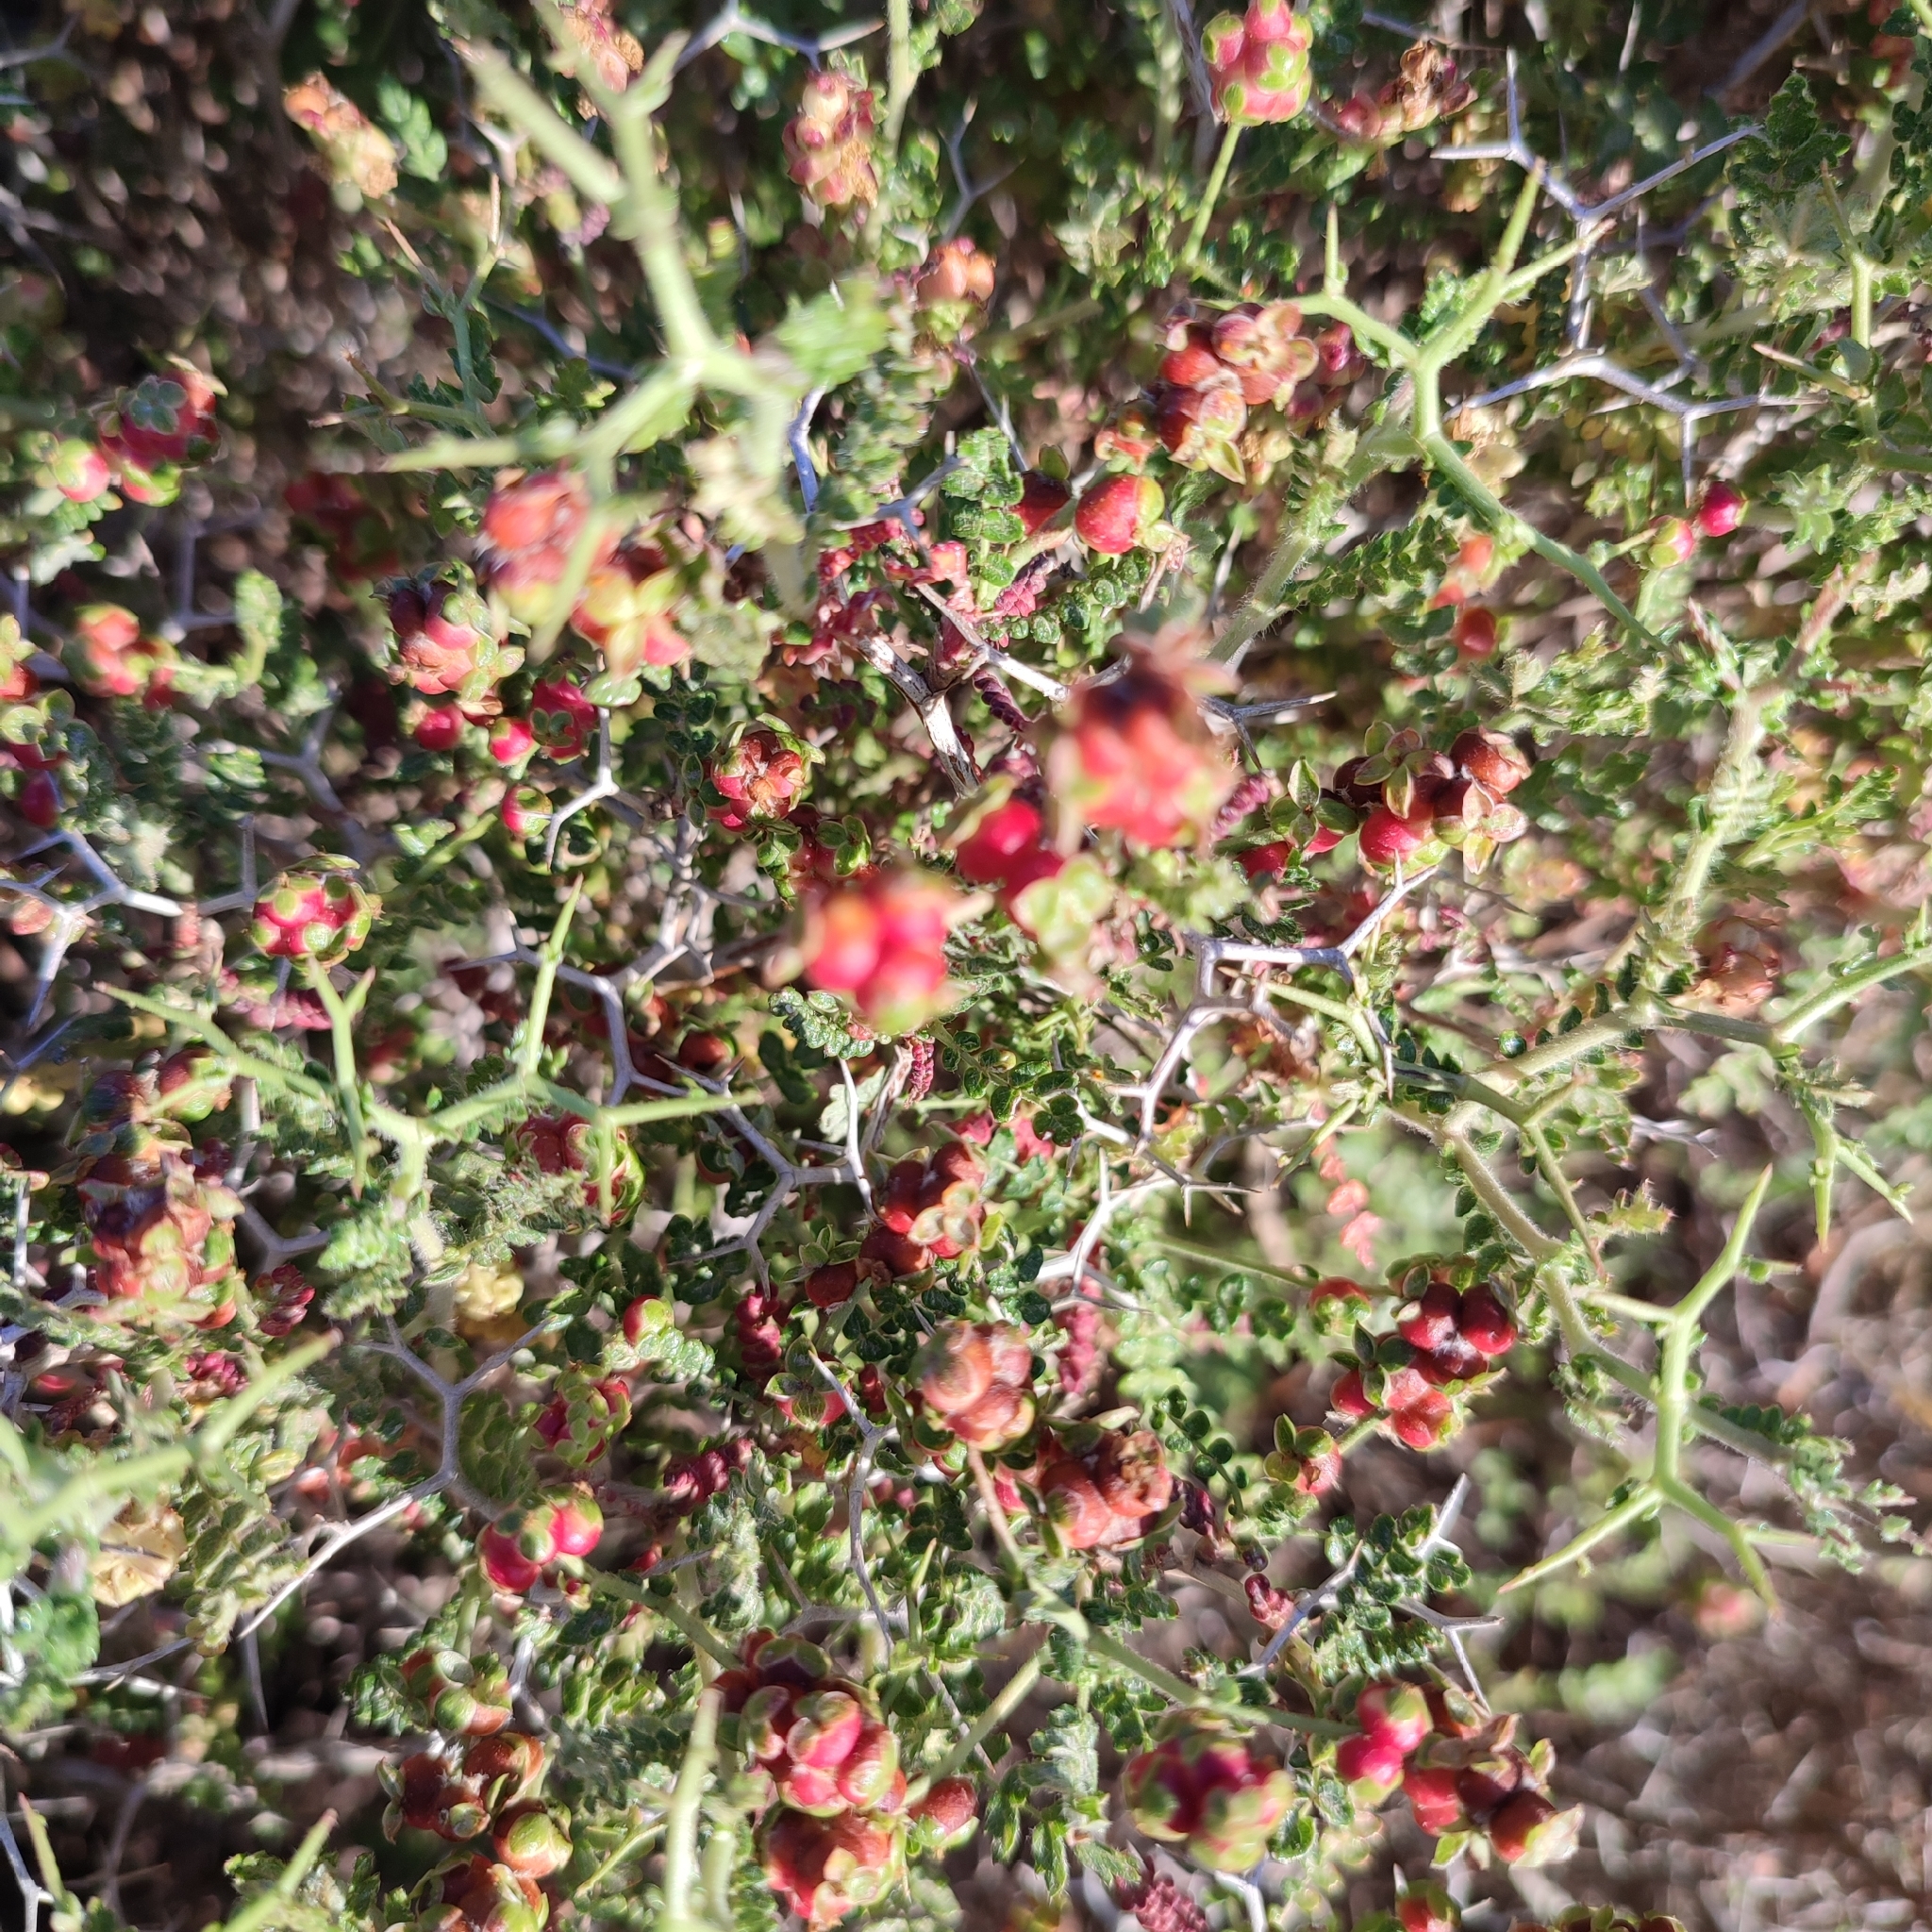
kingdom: Plantae
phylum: Tracheophyta
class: Magnoliopsida
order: Rosales
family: Rosaceae
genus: Sarcopoterium
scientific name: Sarcopoterium spinosum
